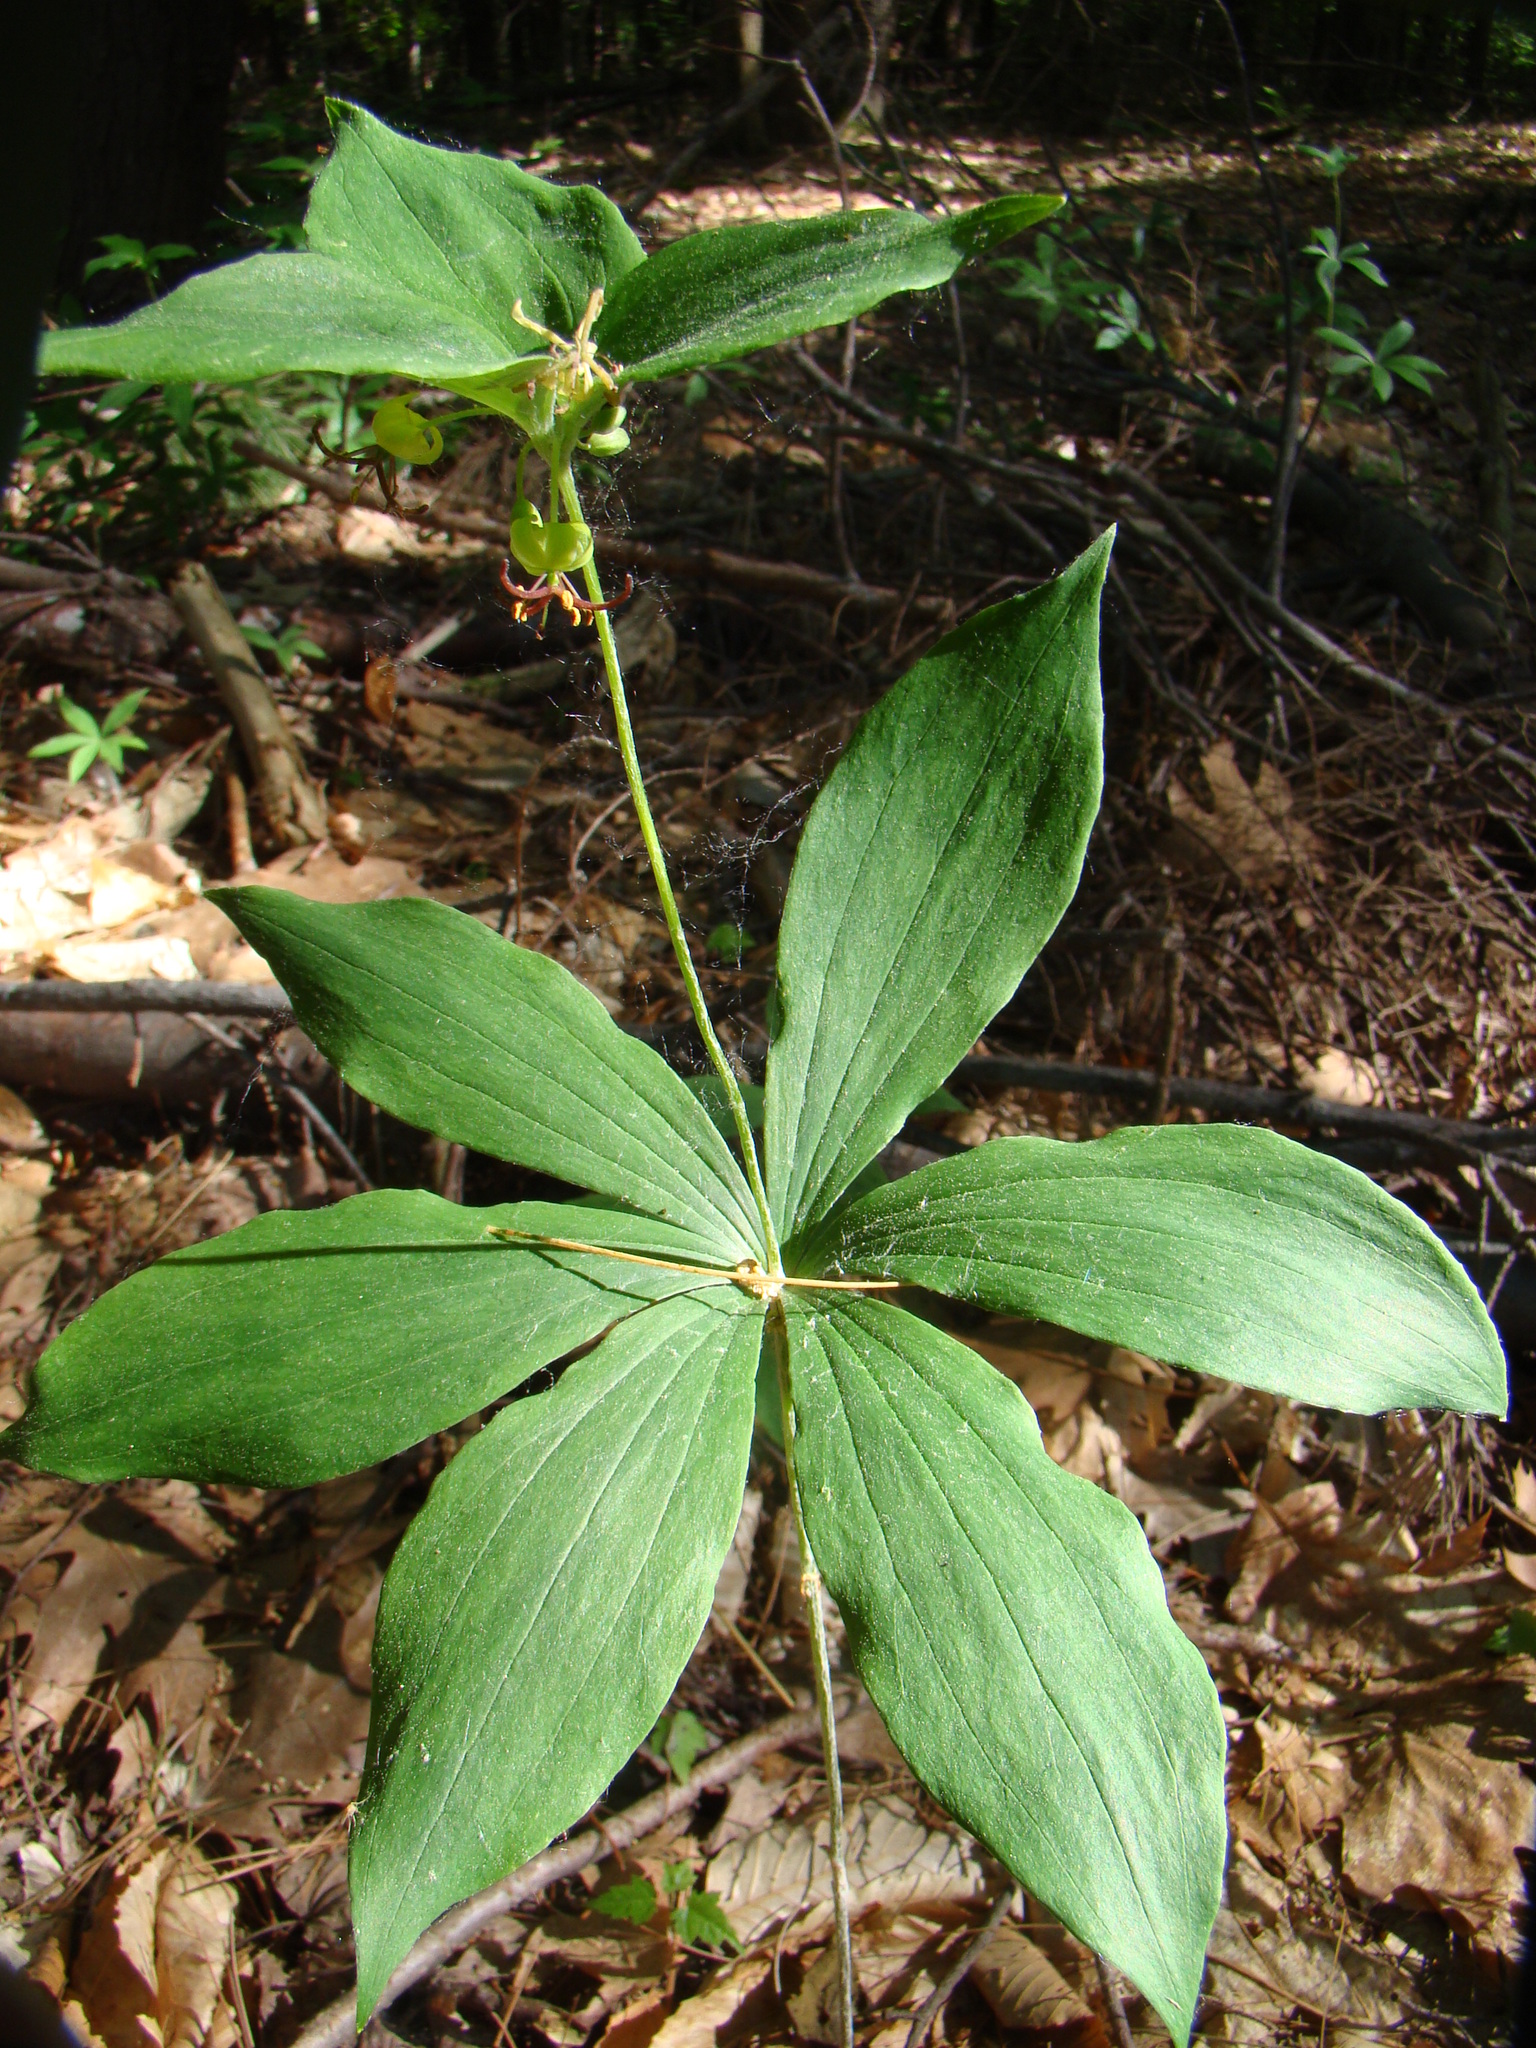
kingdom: Plantae
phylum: Tracheophyta
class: Liliopsida
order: Liliales
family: Liliaceae
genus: Medeola
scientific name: Medeola virginiana
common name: Indian cucumber-root
